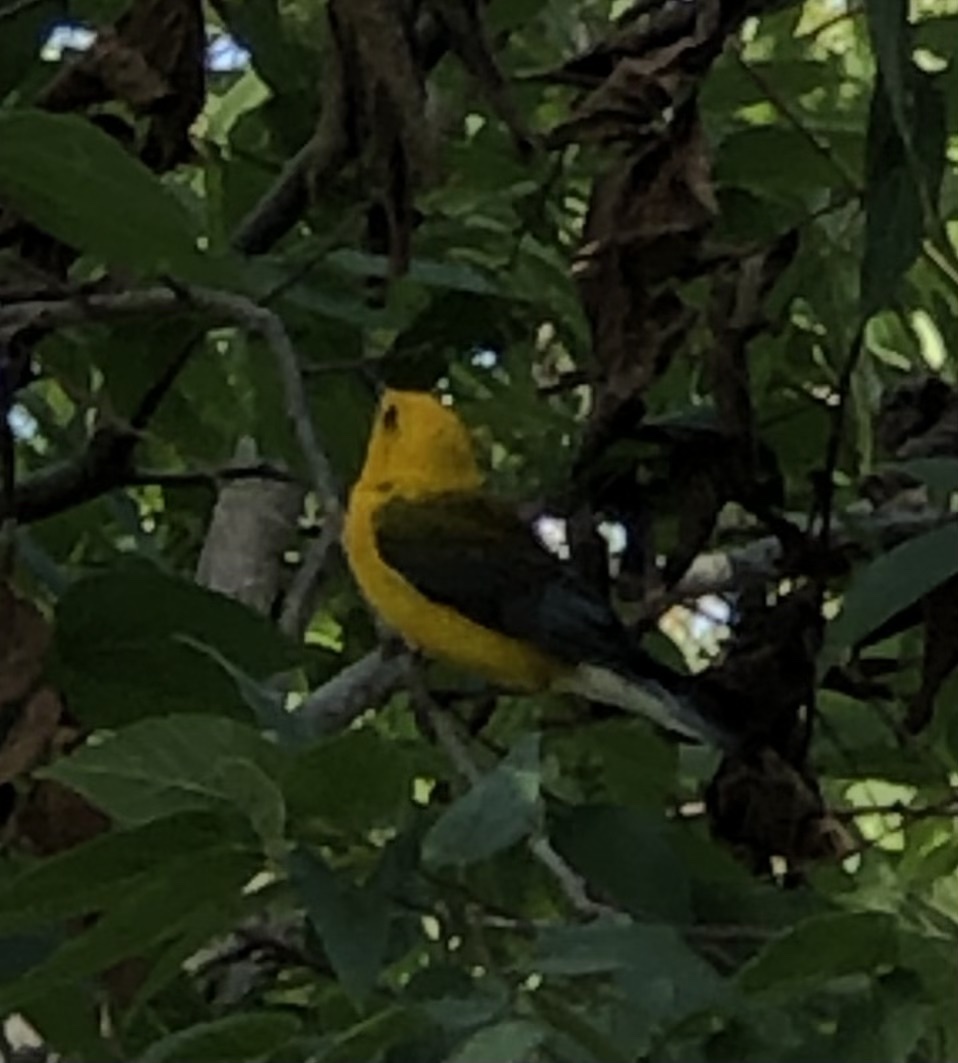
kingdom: Animalia
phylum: Chordata
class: Aves
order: Passeriformes
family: Parulidae
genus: Protonotaria
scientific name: Protonotaria citrea
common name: Prothonotary warbler
